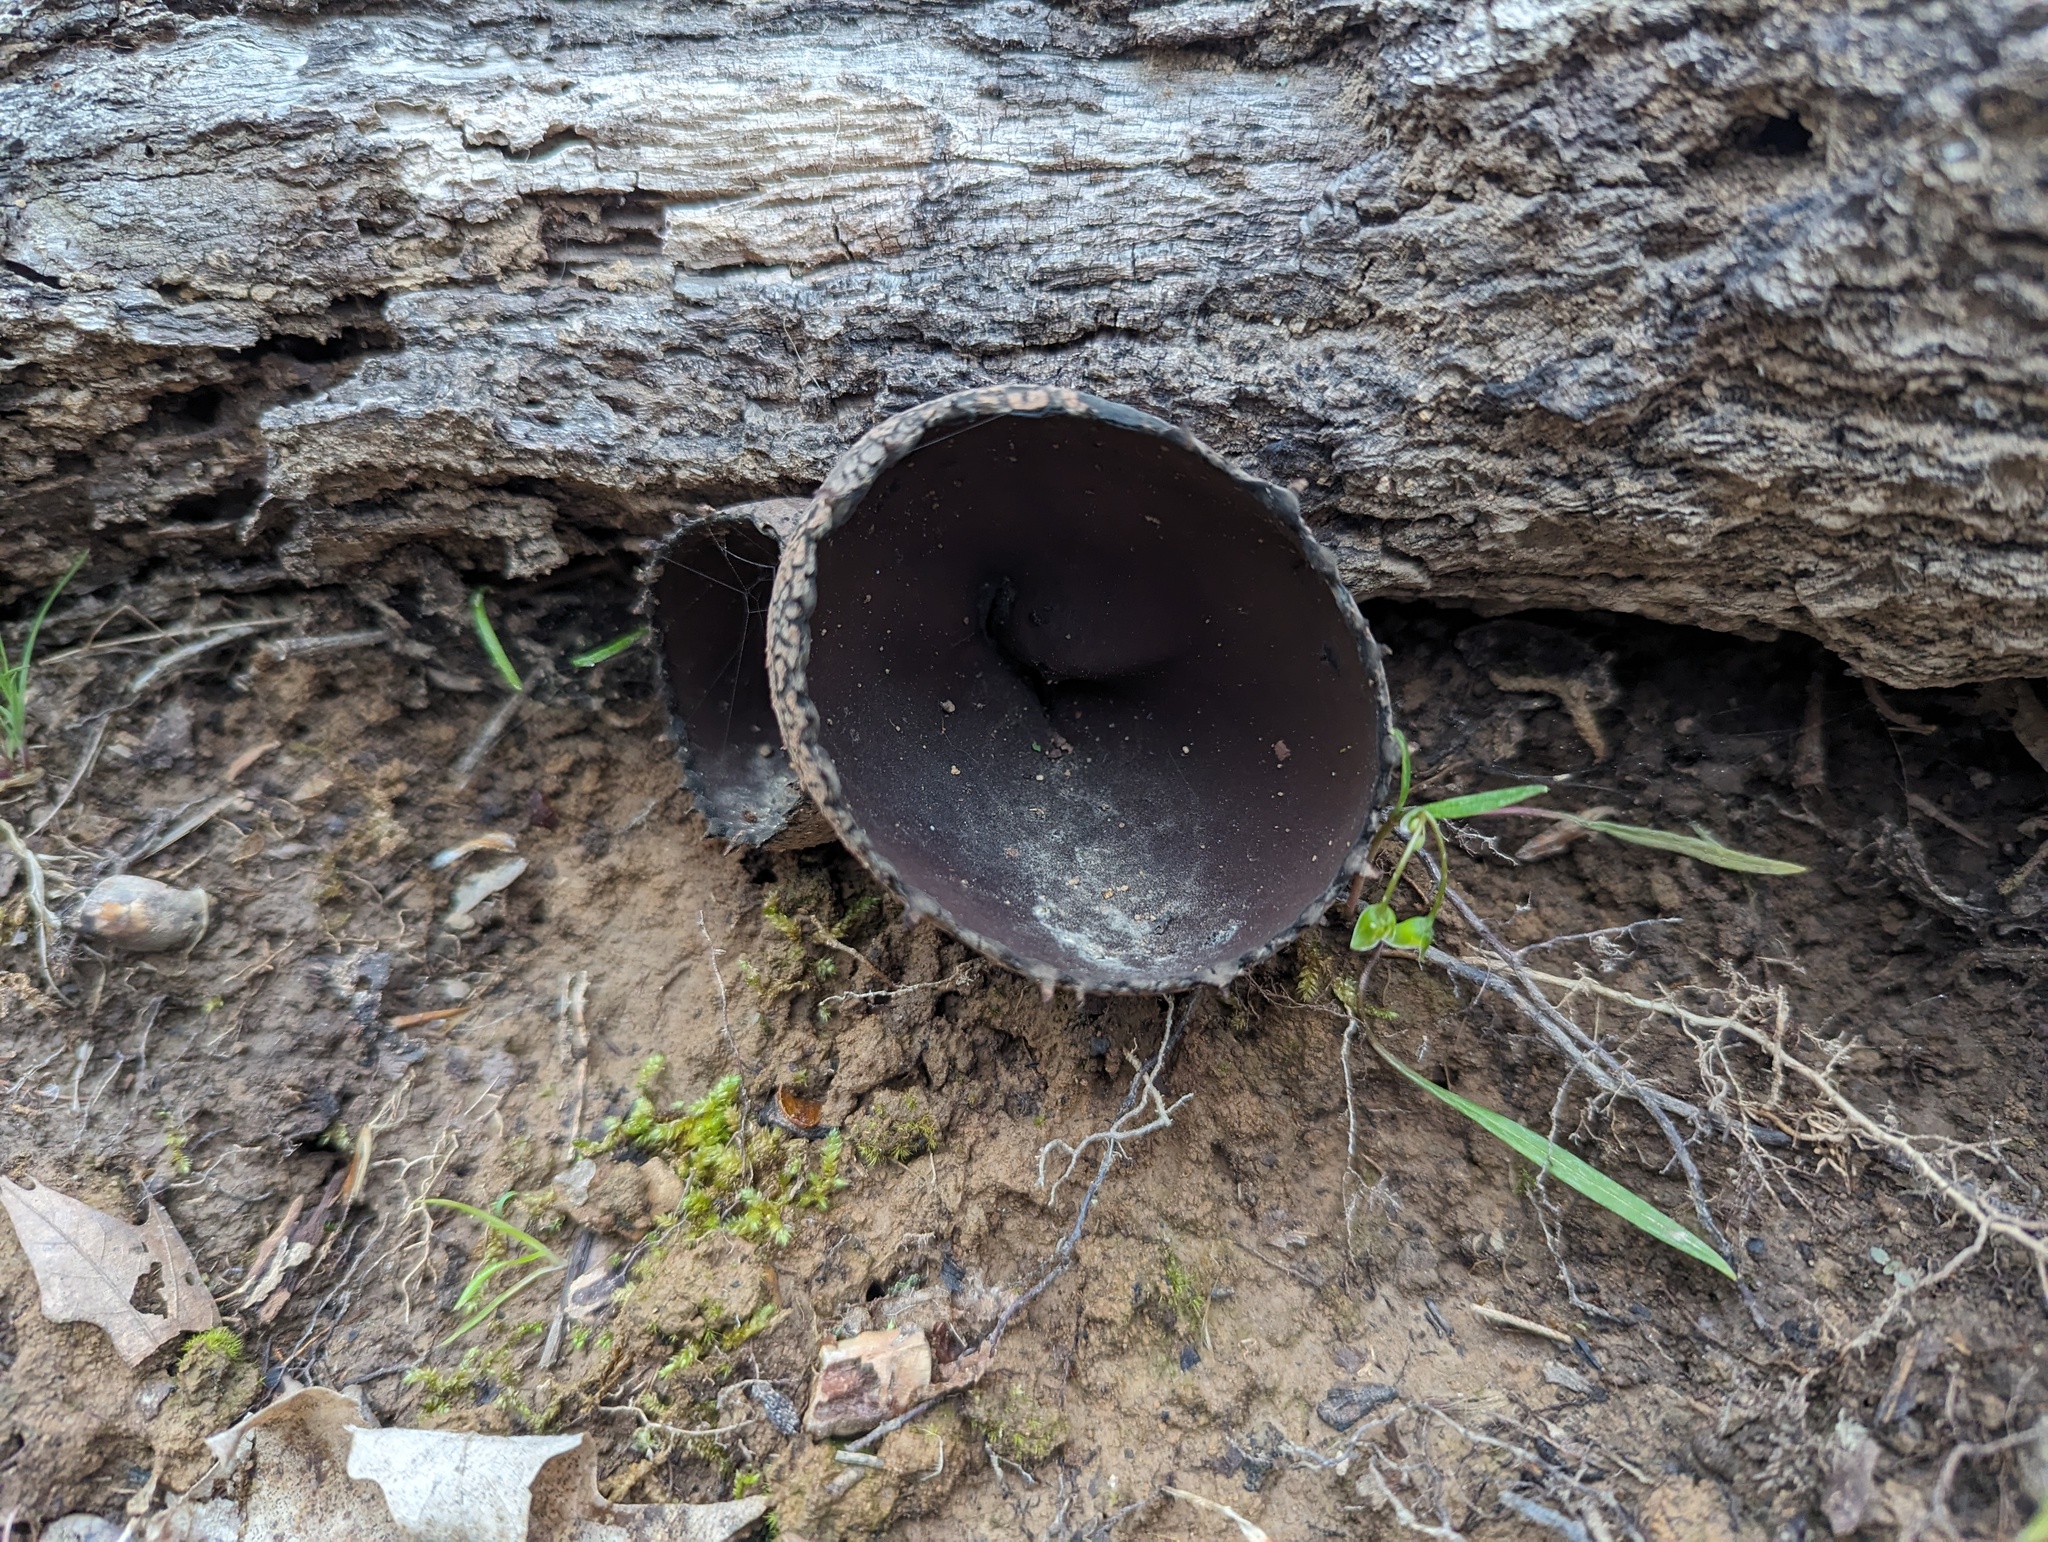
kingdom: Fungi
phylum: Ascomycota
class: Pezizomycetes
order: Pezizales
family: Sarcosomataceae
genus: Urnula
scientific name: Urnula craterium
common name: Devil's urn
